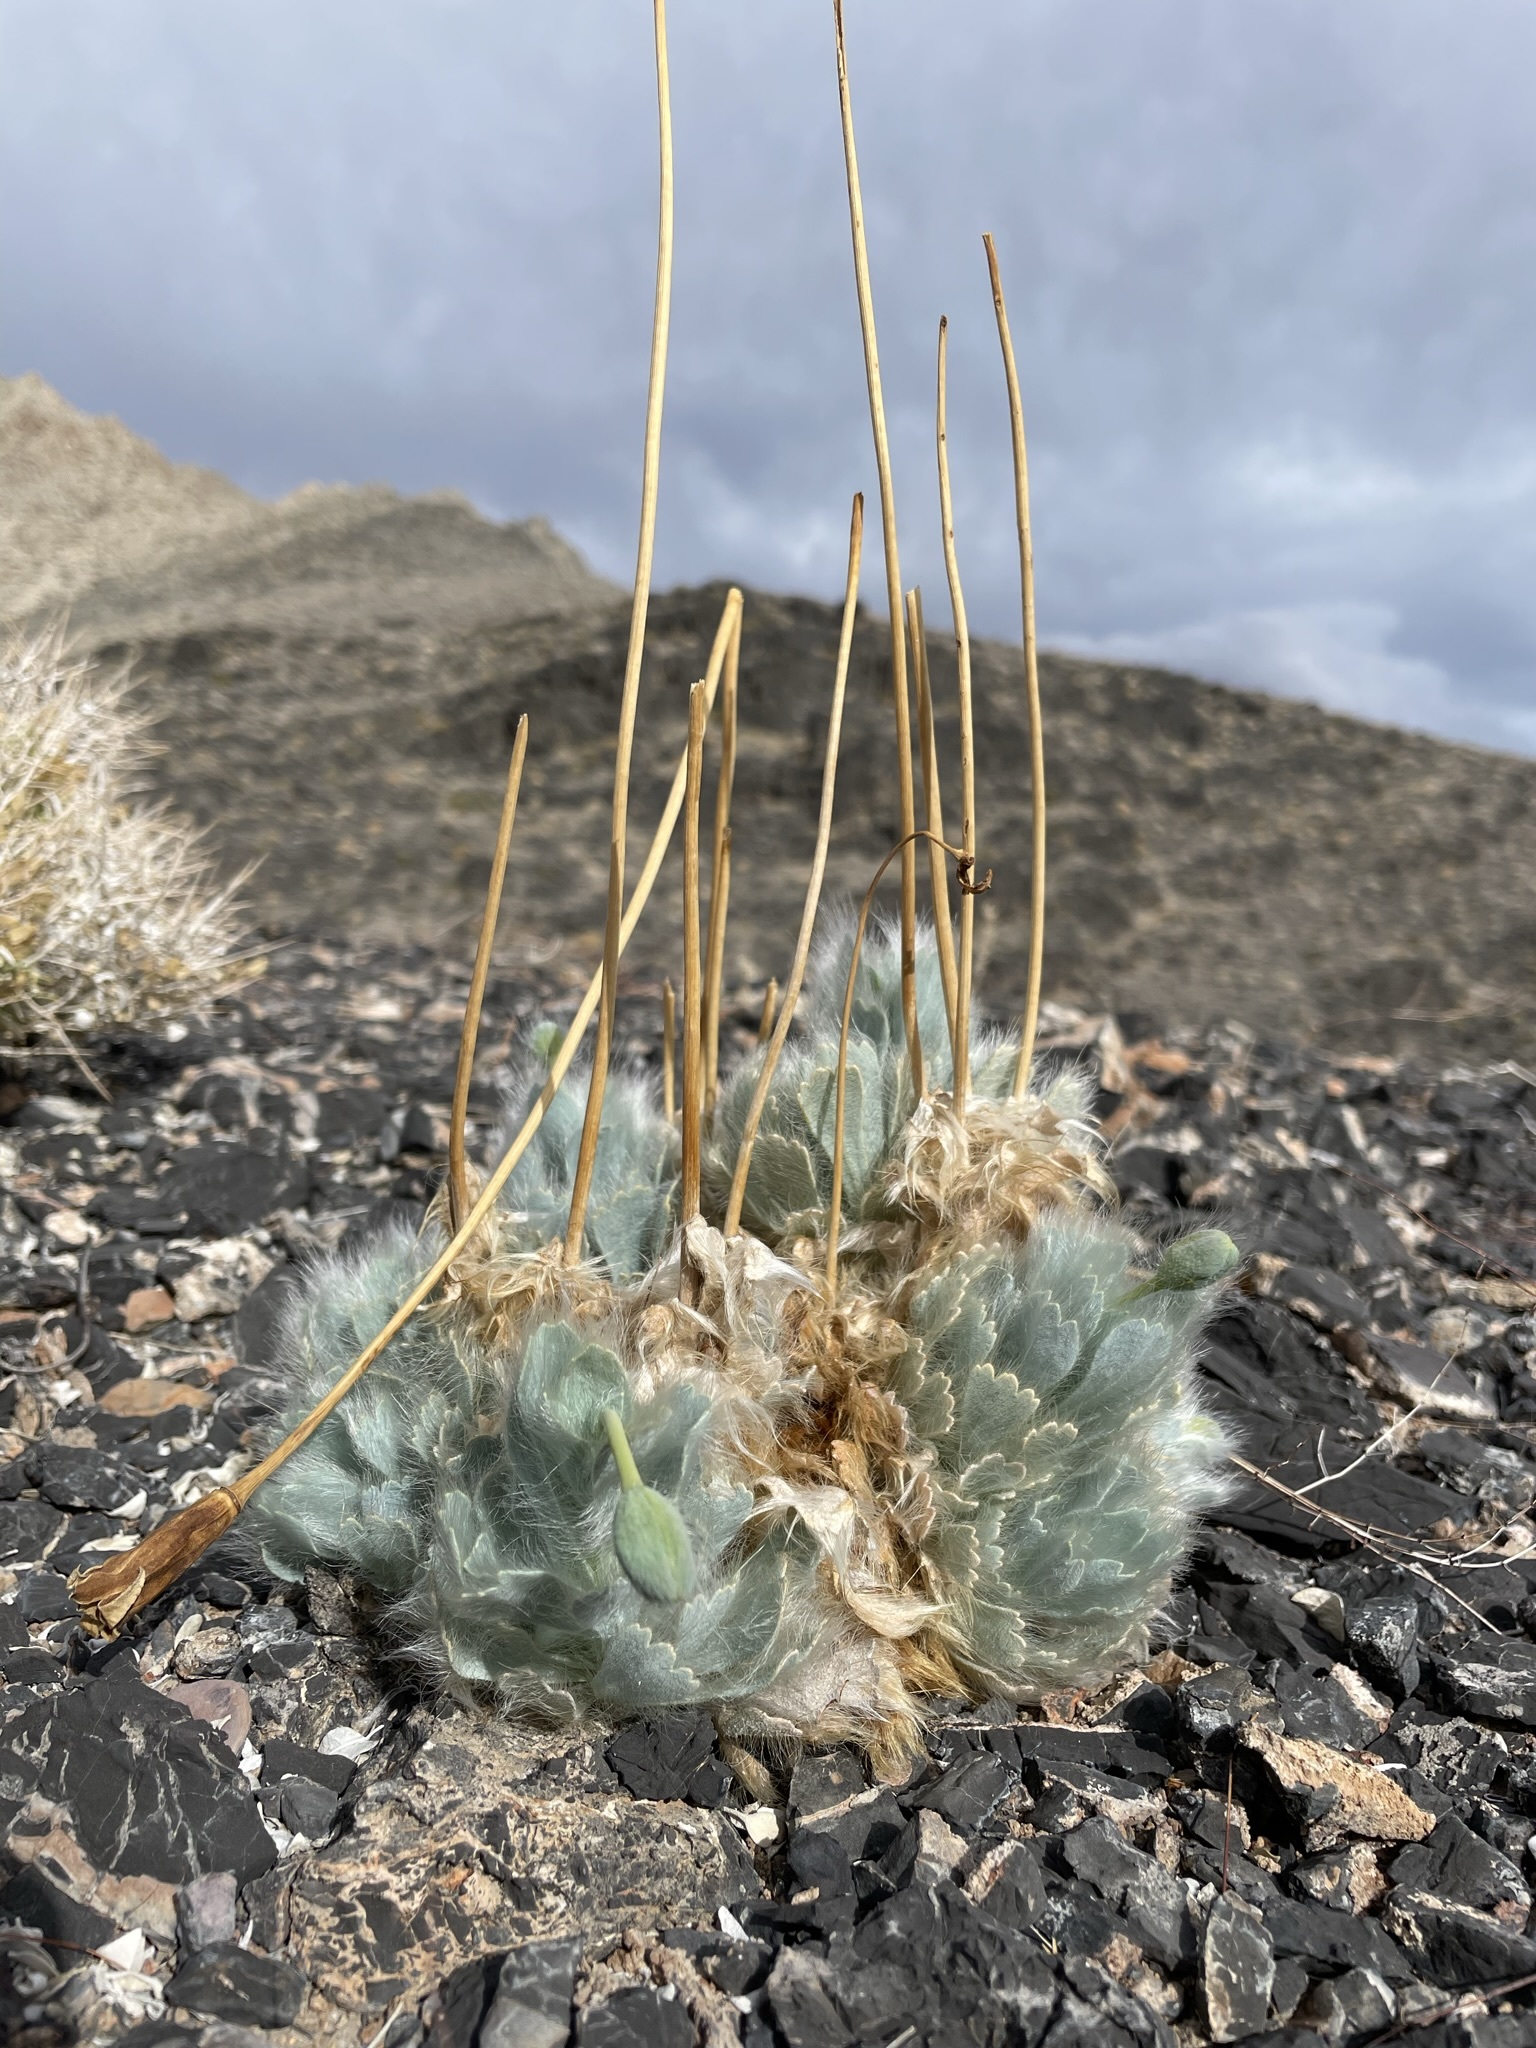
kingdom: Plantae
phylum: Tracheophyta
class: Magnoliopsida
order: Ranunculales
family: Papaveraceae
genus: Arctomecon
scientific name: Arctomecon merriamii
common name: White bear-poppy
